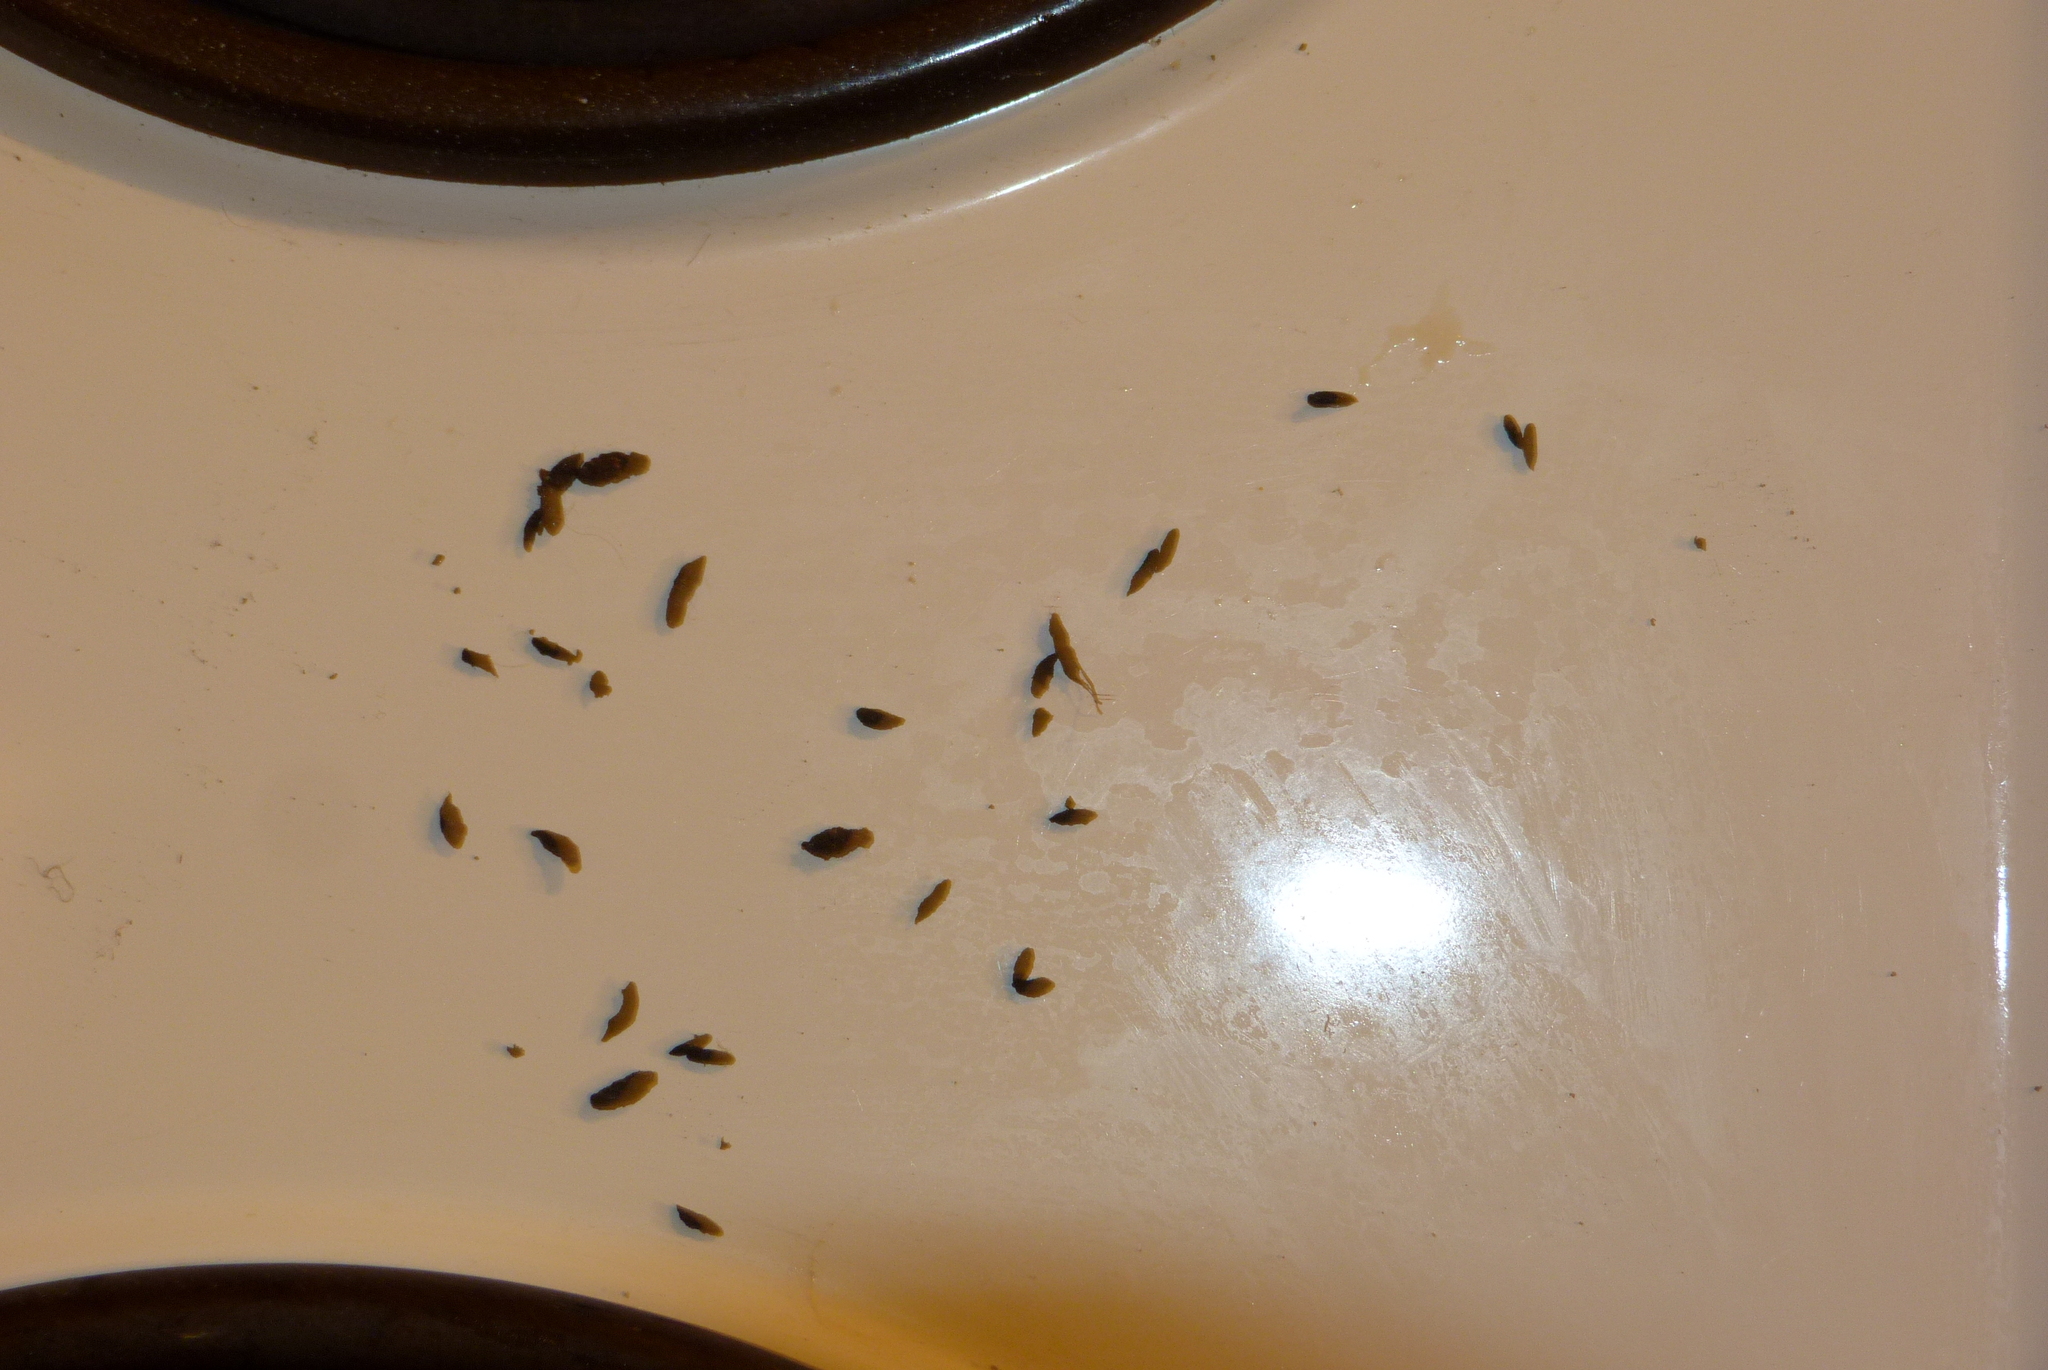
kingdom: Animalia
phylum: Chordata
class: Mammalia
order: Rodentia
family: Muridae
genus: Mus
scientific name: Mus musculus
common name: House mouse
